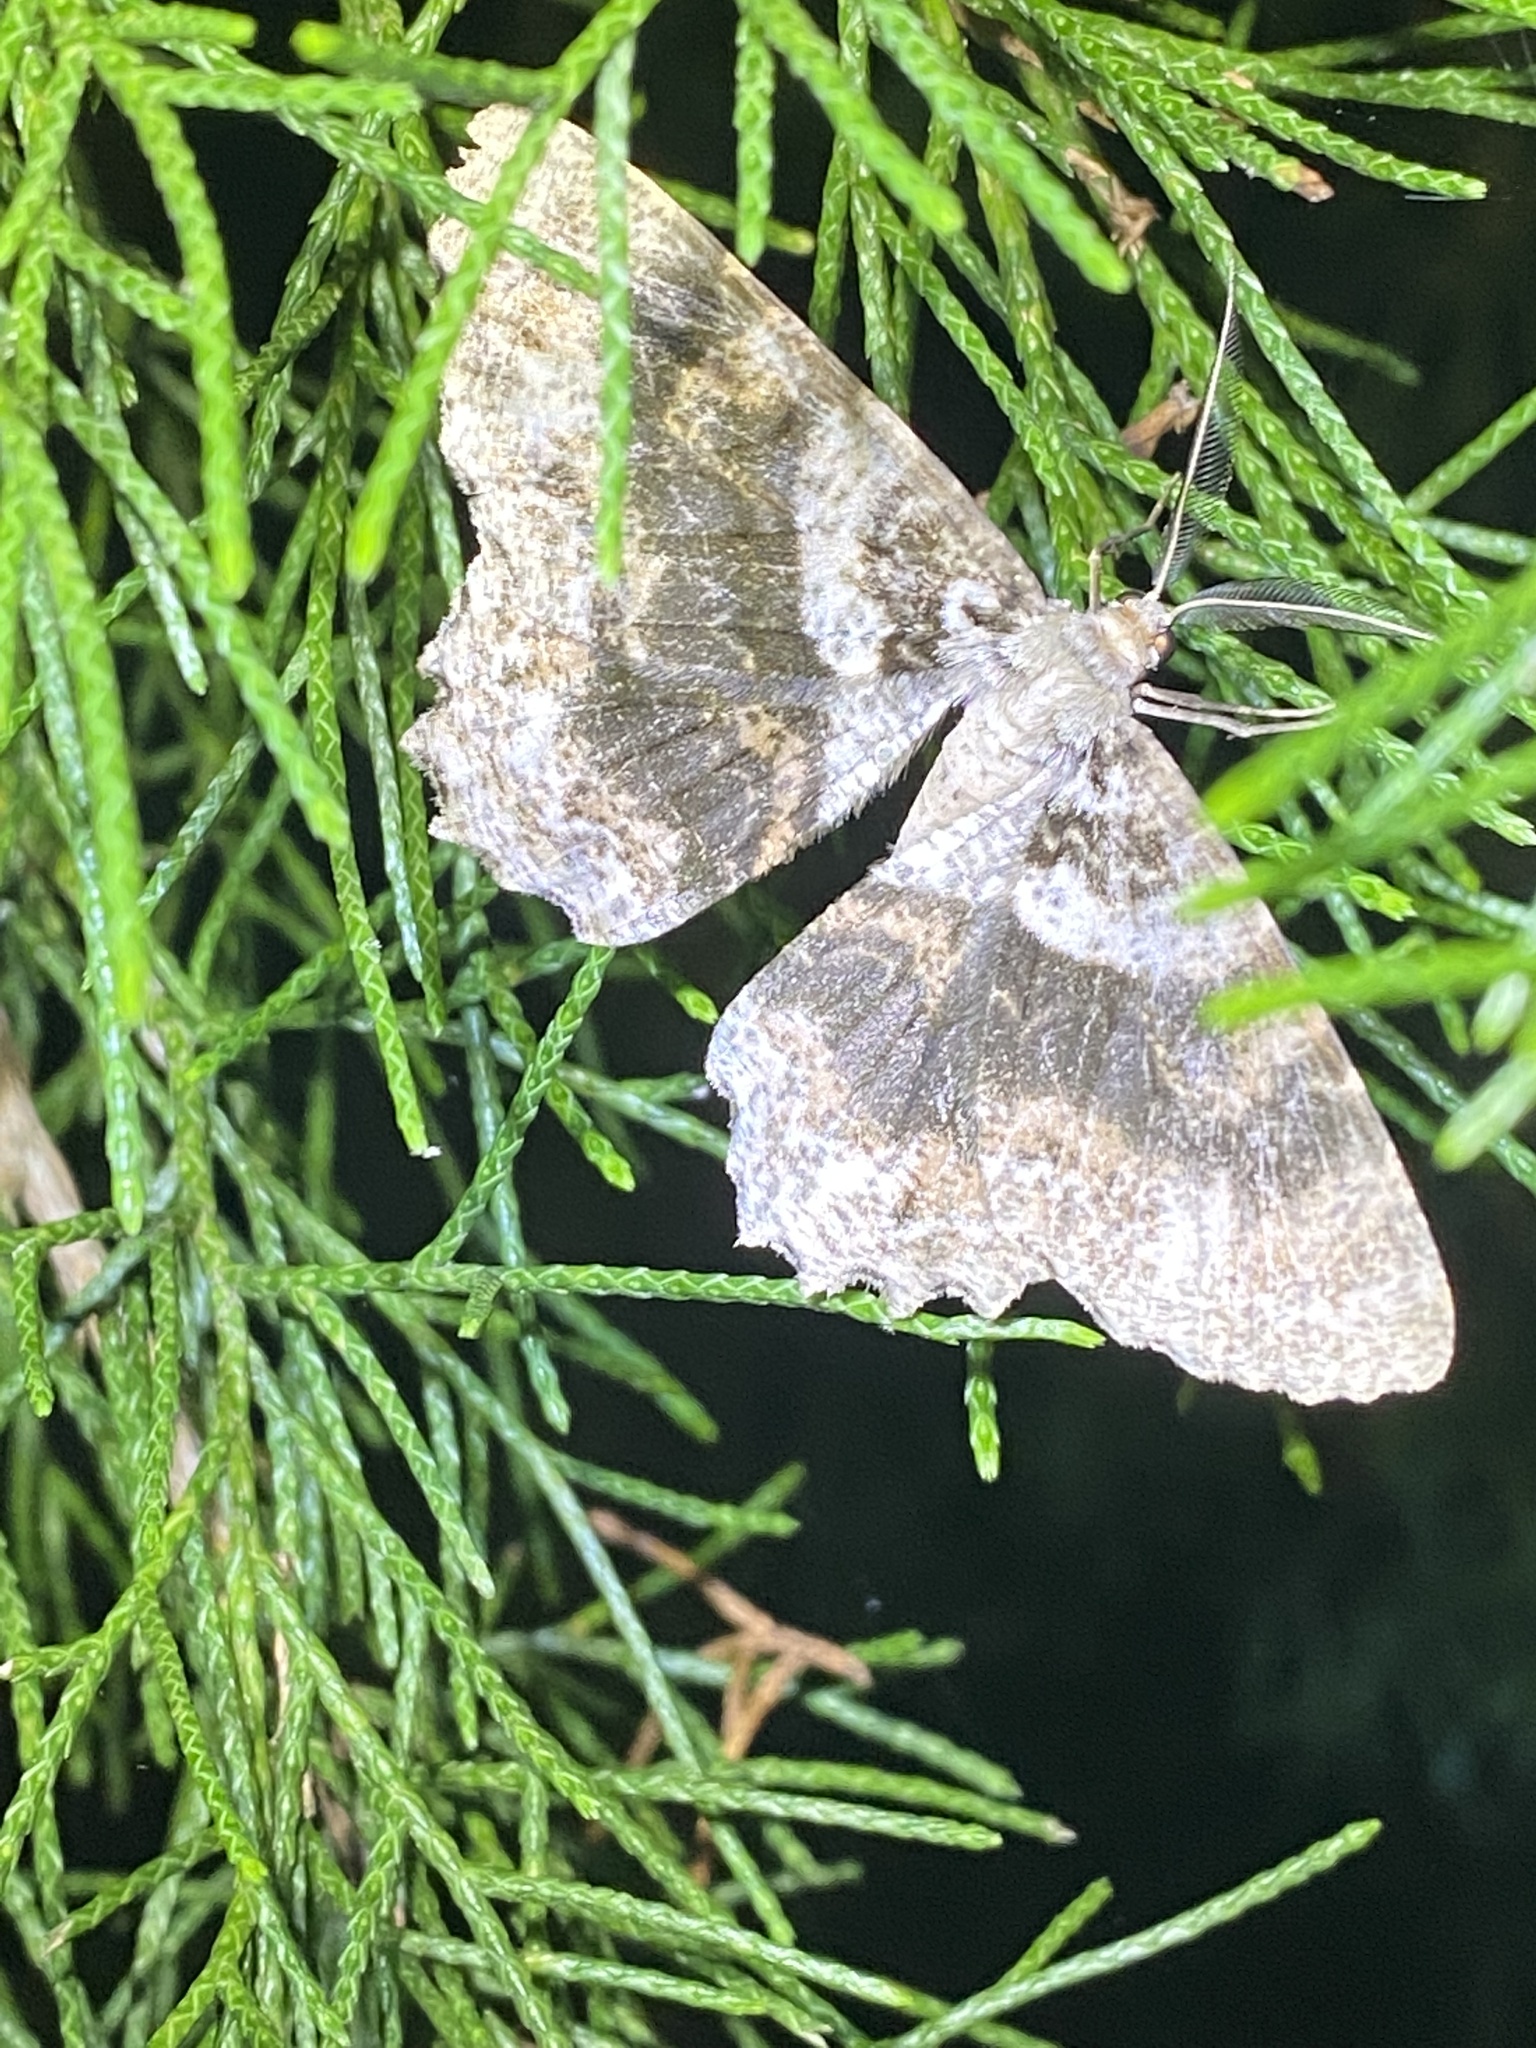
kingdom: Animalia
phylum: Arthropoda
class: Insecta
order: Lepidoptera
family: Geometridae
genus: Epimecis
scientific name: Epimecis hortaria
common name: Tulip-tree beauty
